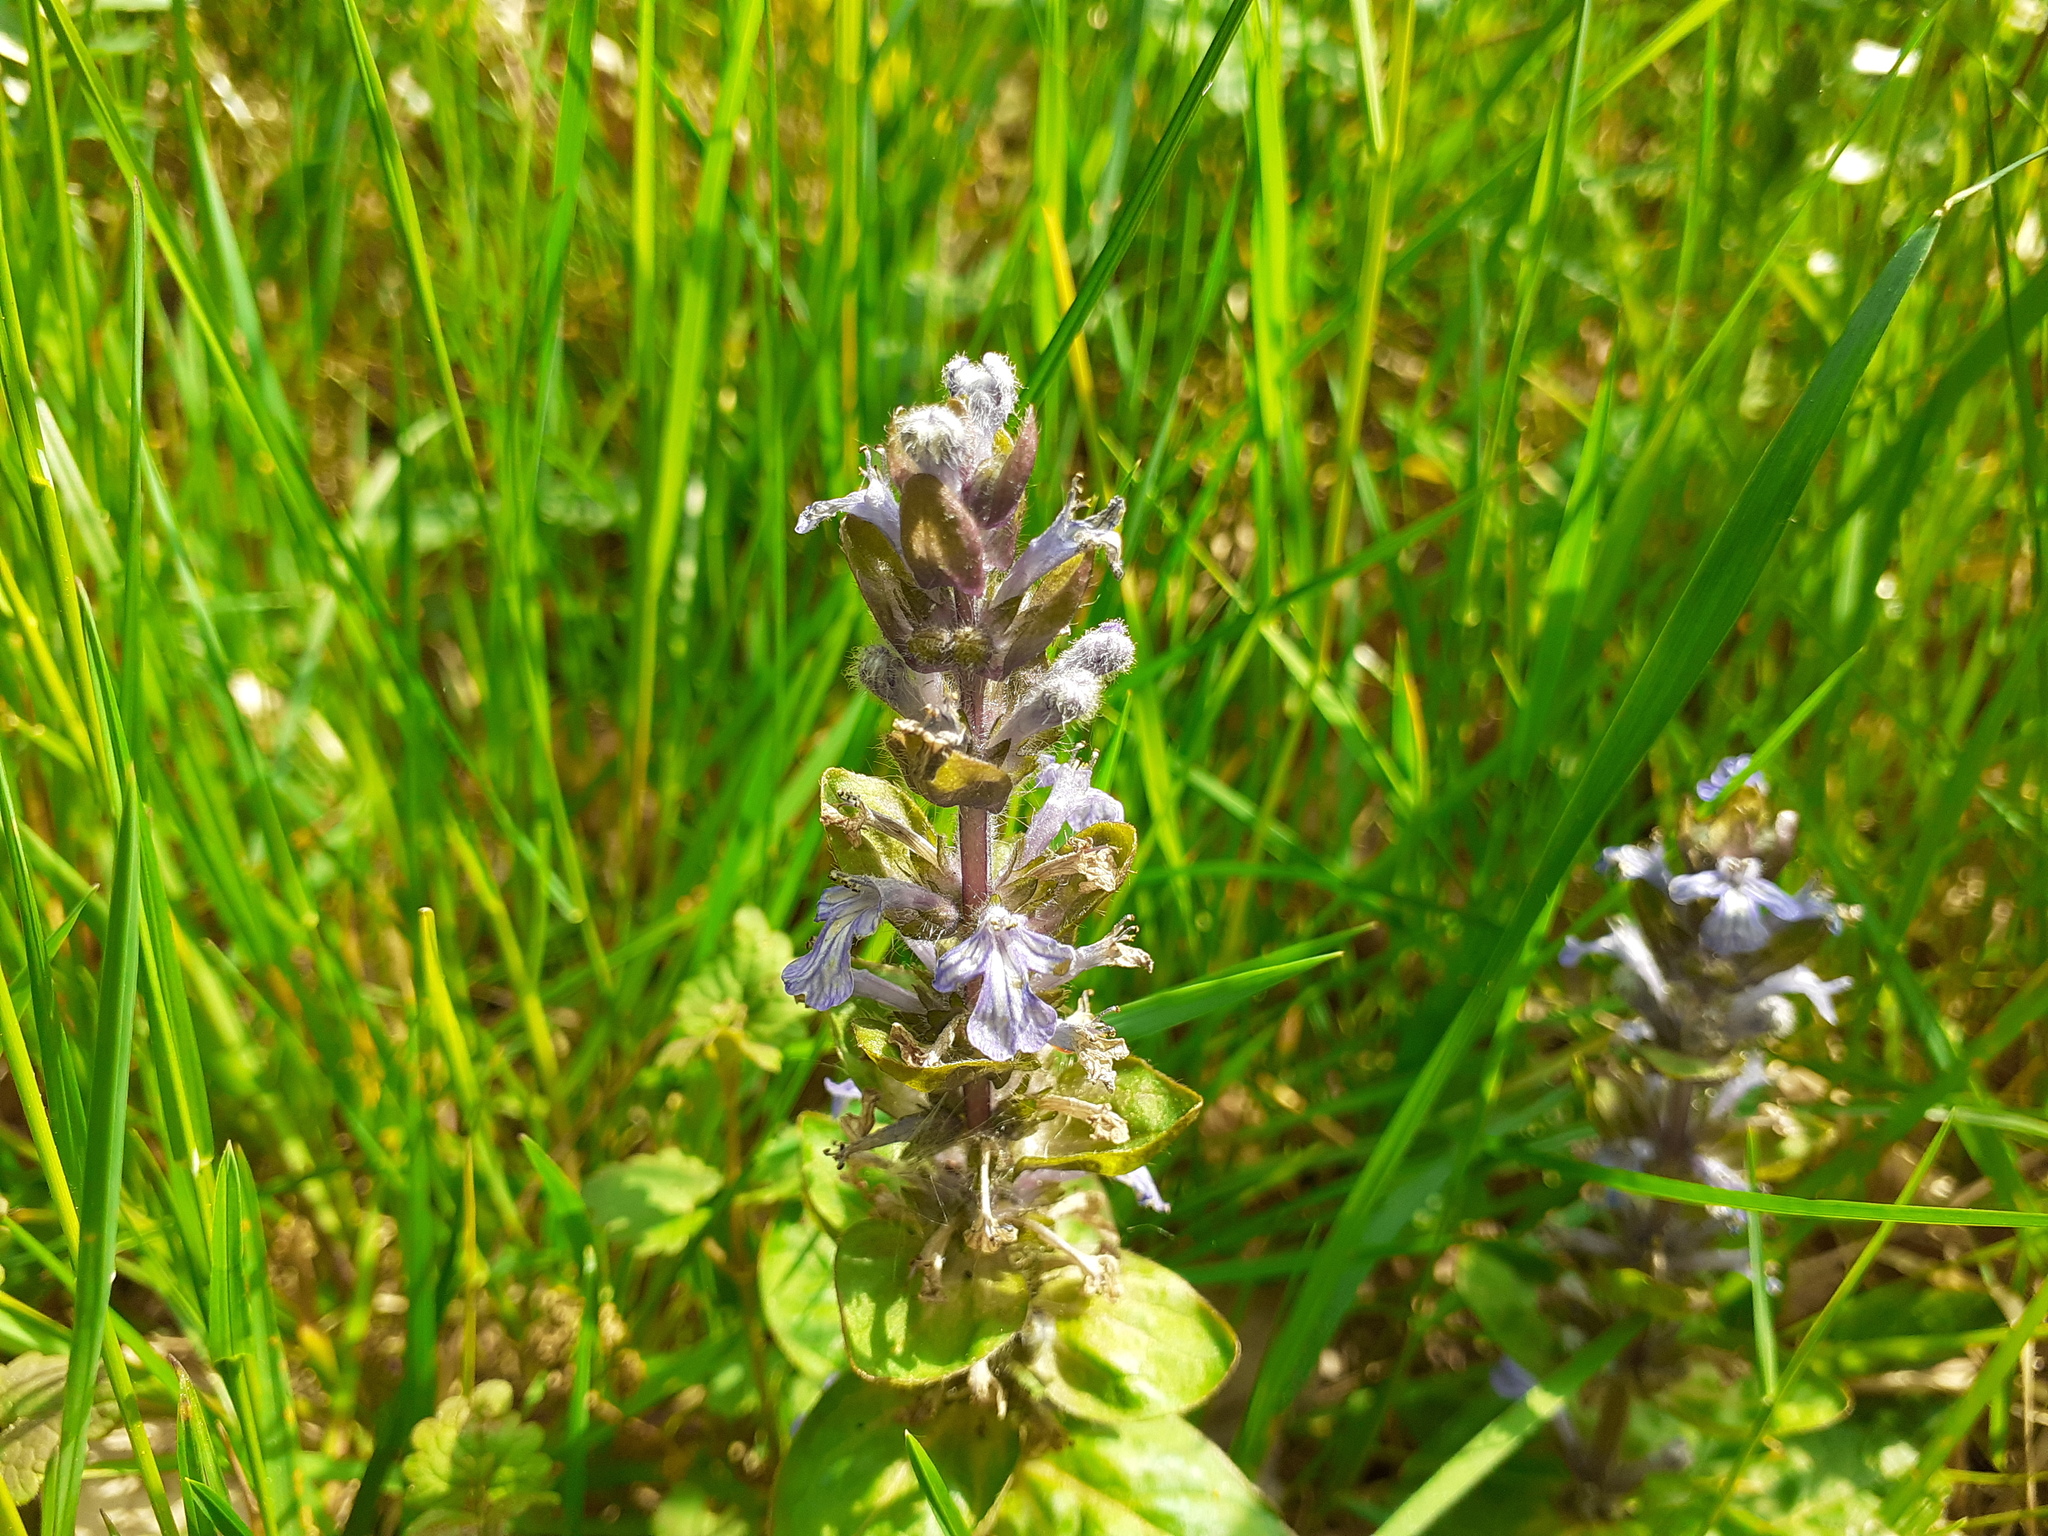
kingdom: Plantae
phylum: Tracheophyta
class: Magnoliopsida
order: Lamiales
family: Lamiaceae
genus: Ajuga
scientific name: Ajuga reptans
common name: Bugle
